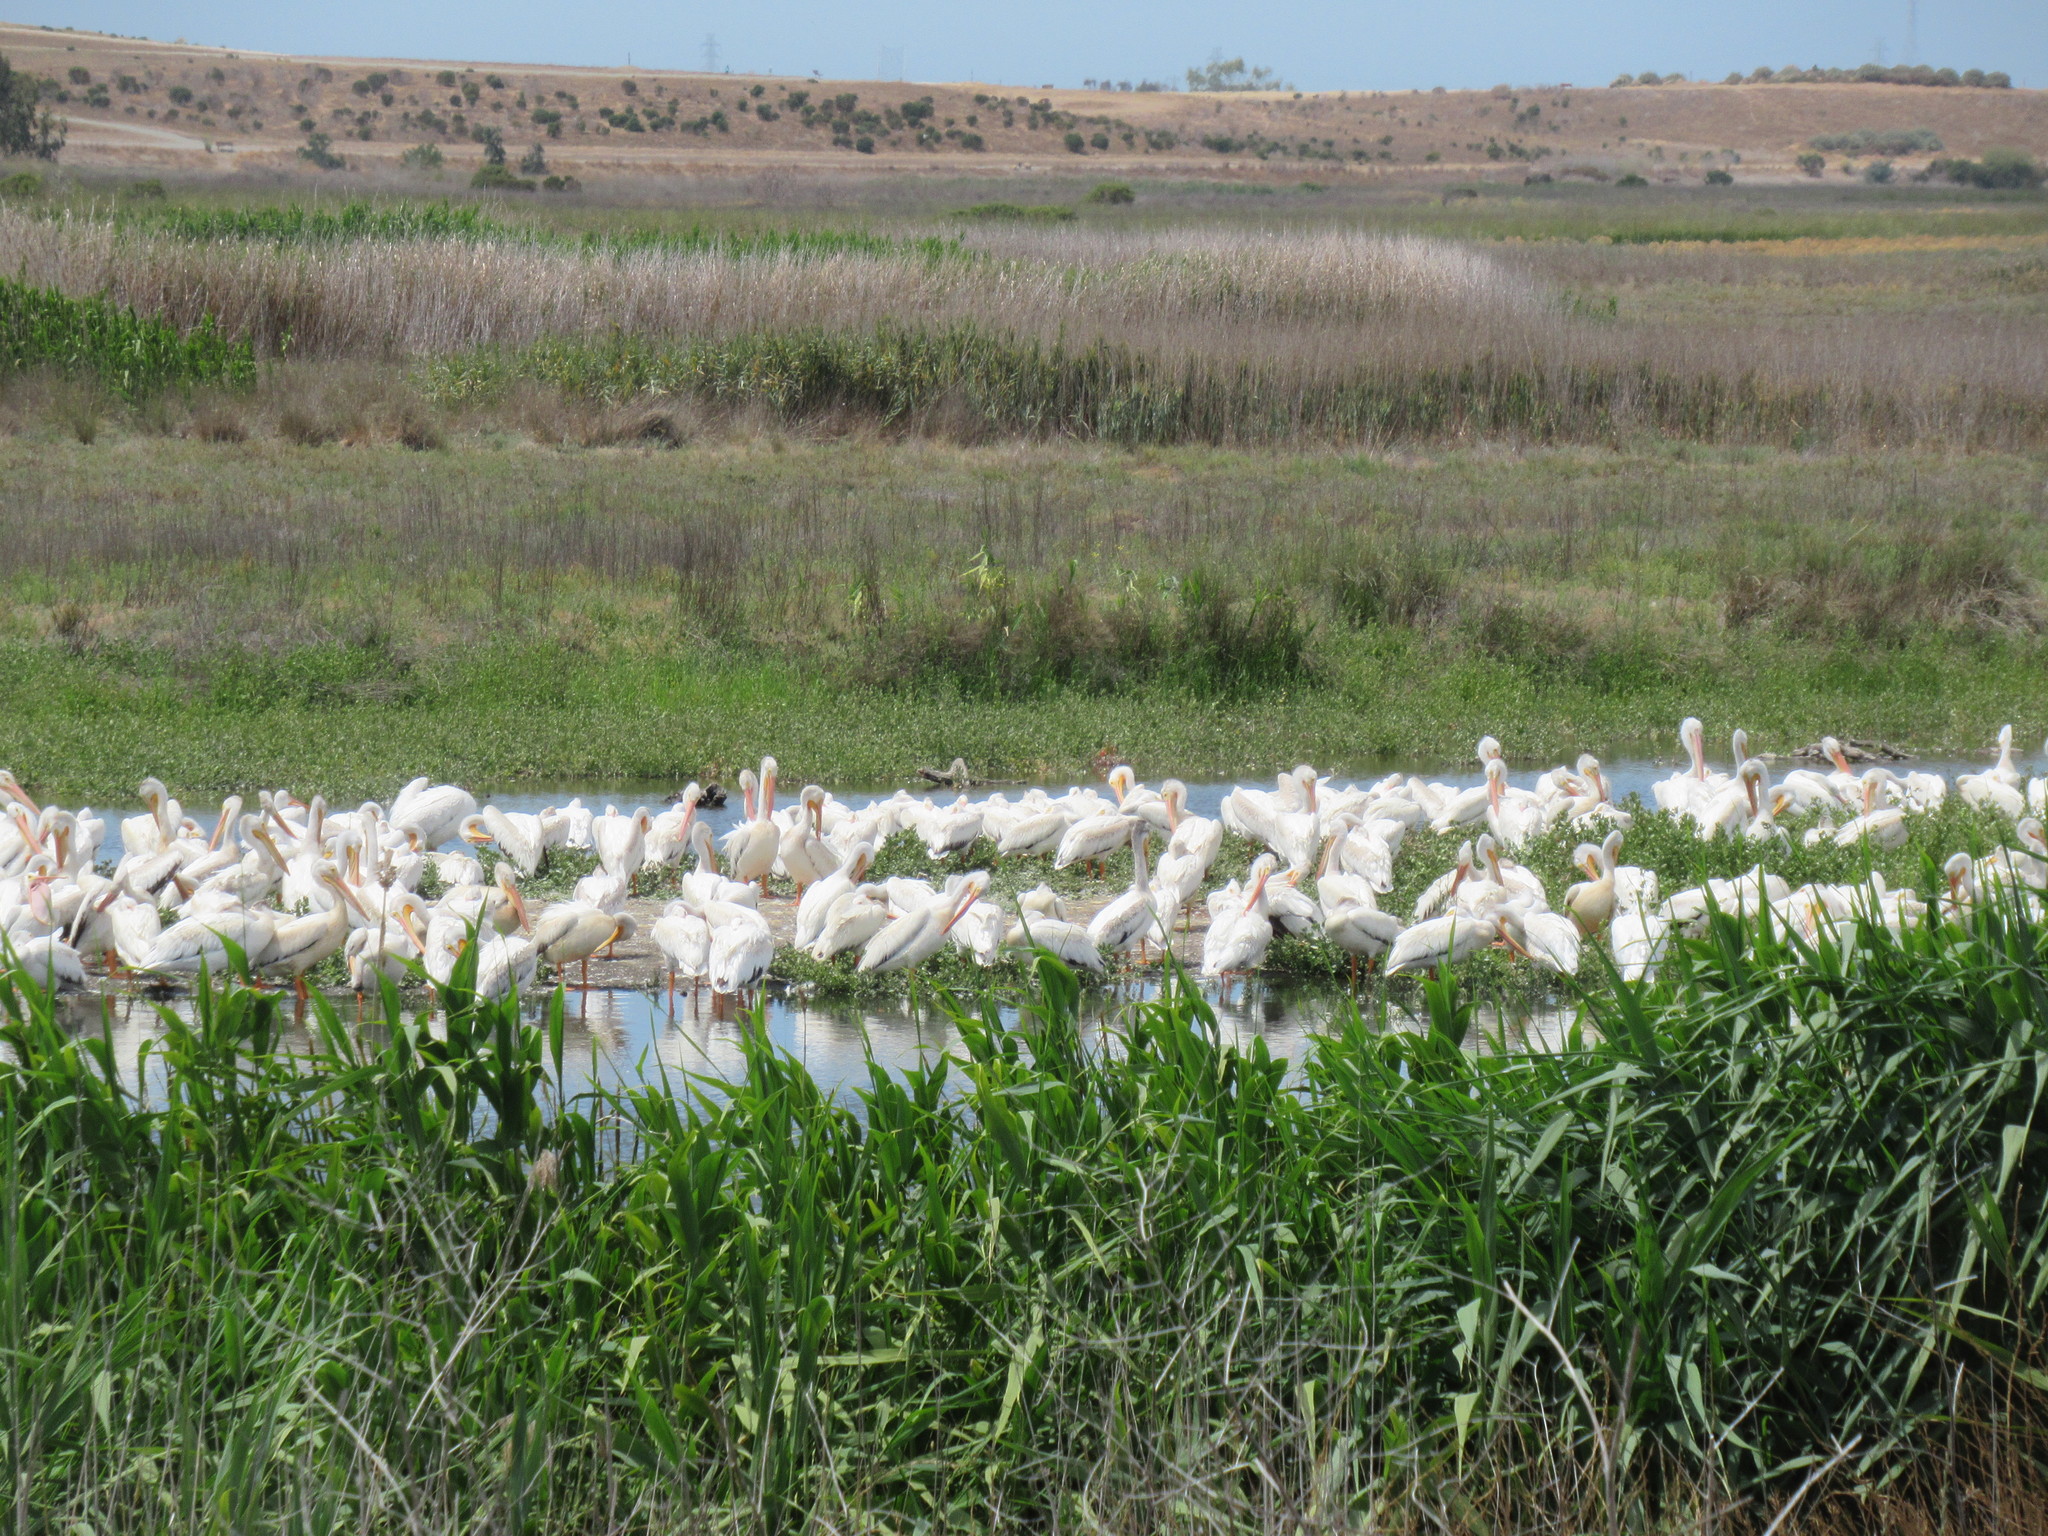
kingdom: Animalia
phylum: Chordata
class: Aves
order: Pelecaniformes
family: Pelecanidae
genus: Pelecanus
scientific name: Pelecanus erythrorhynchos
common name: American white pelican
